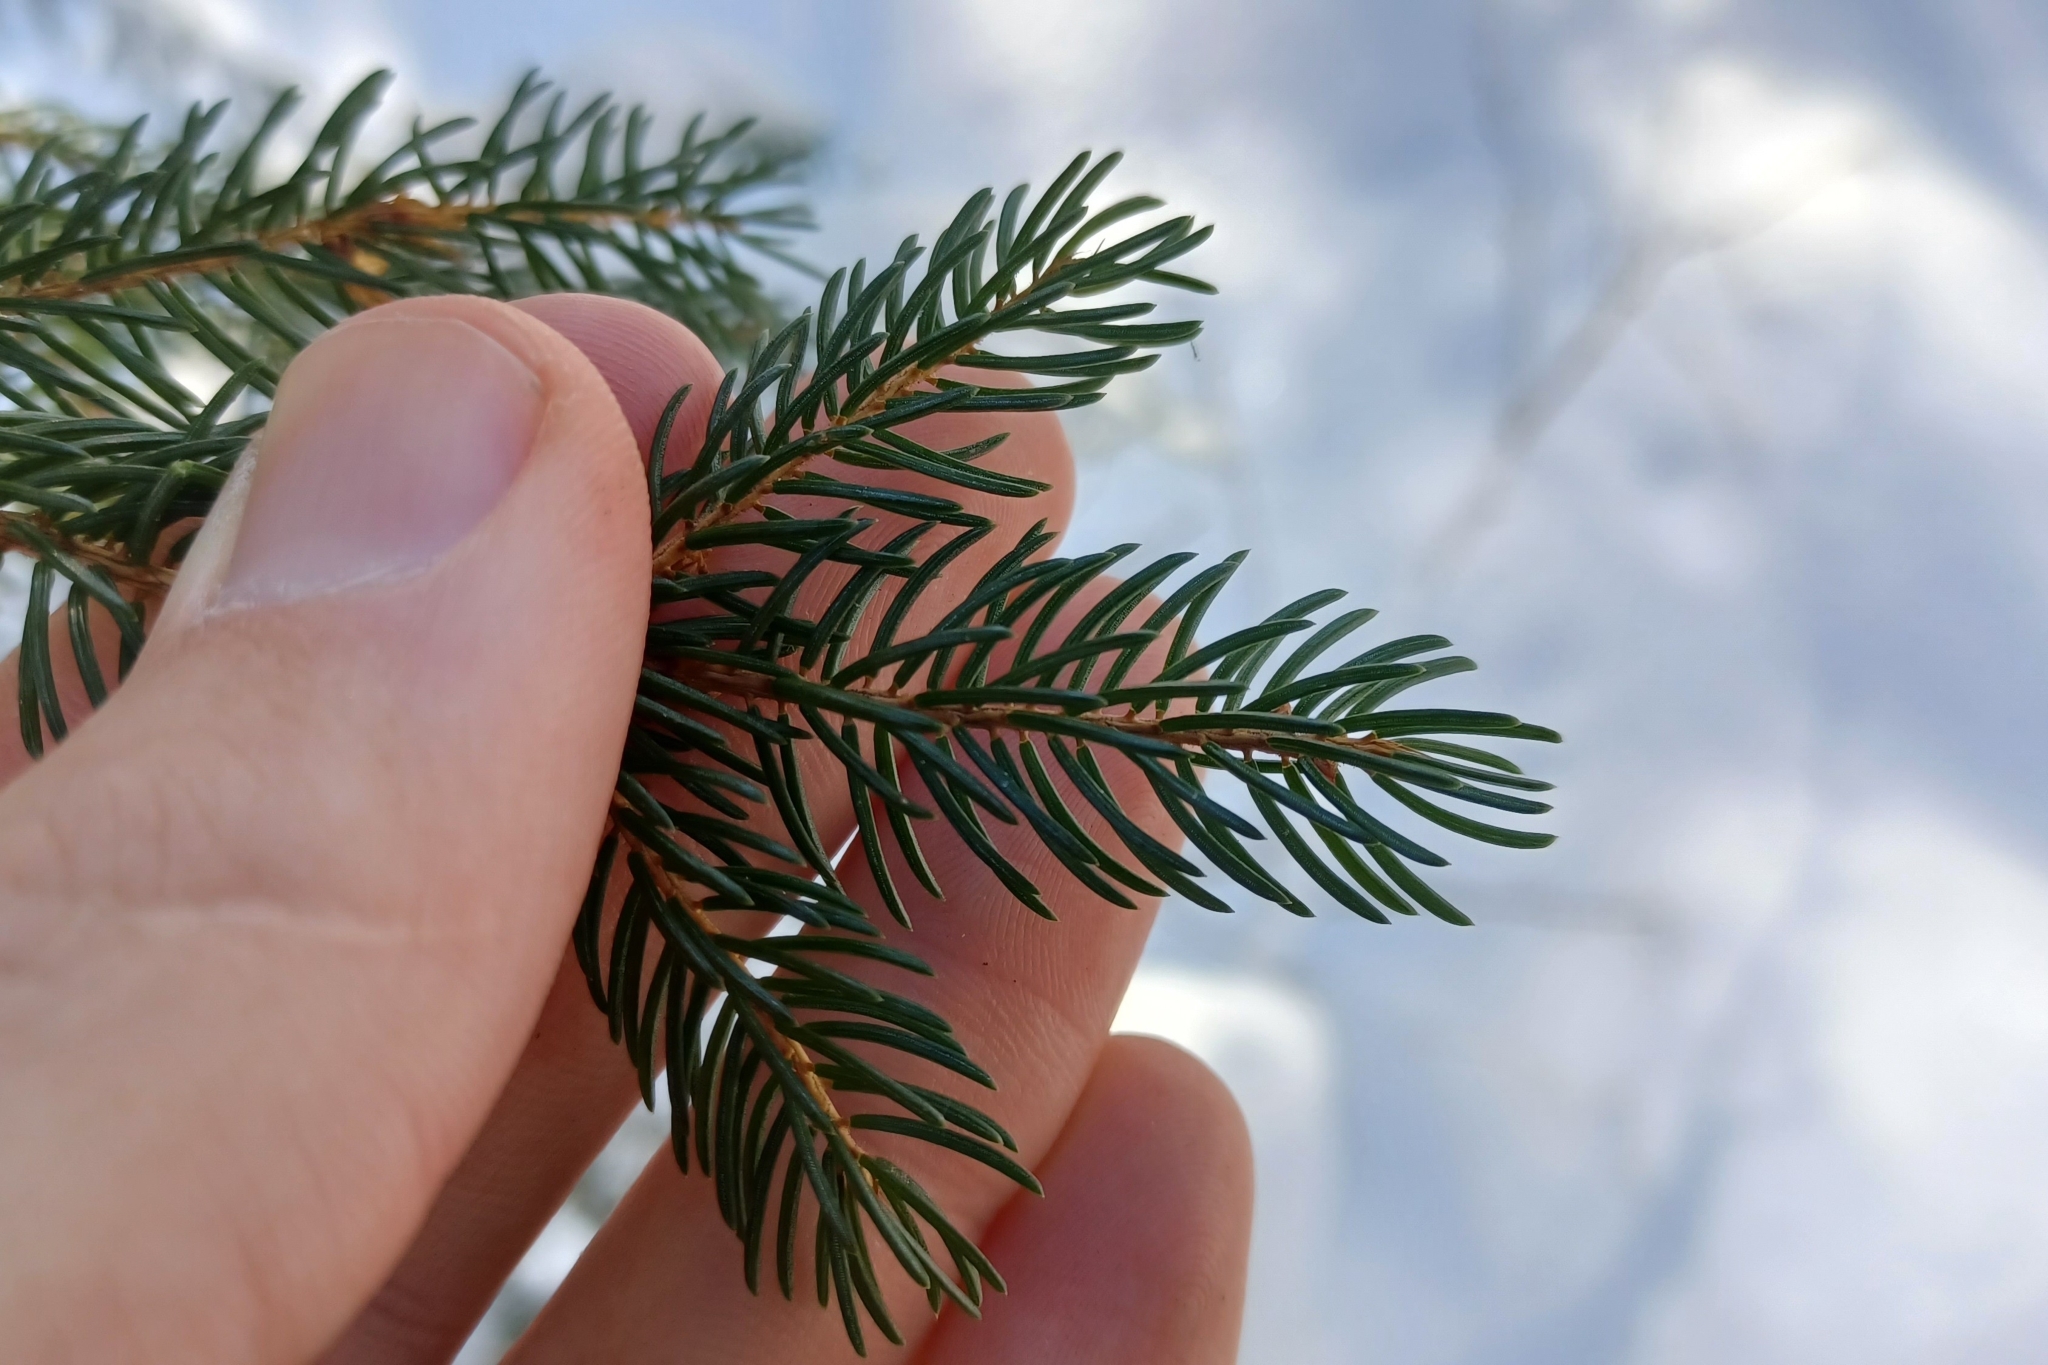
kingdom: Plantae
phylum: Tracheophyta
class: Pinopsida
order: Pinales
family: Pinaceae
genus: Picea
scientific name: Picea rubens
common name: Red spruce
